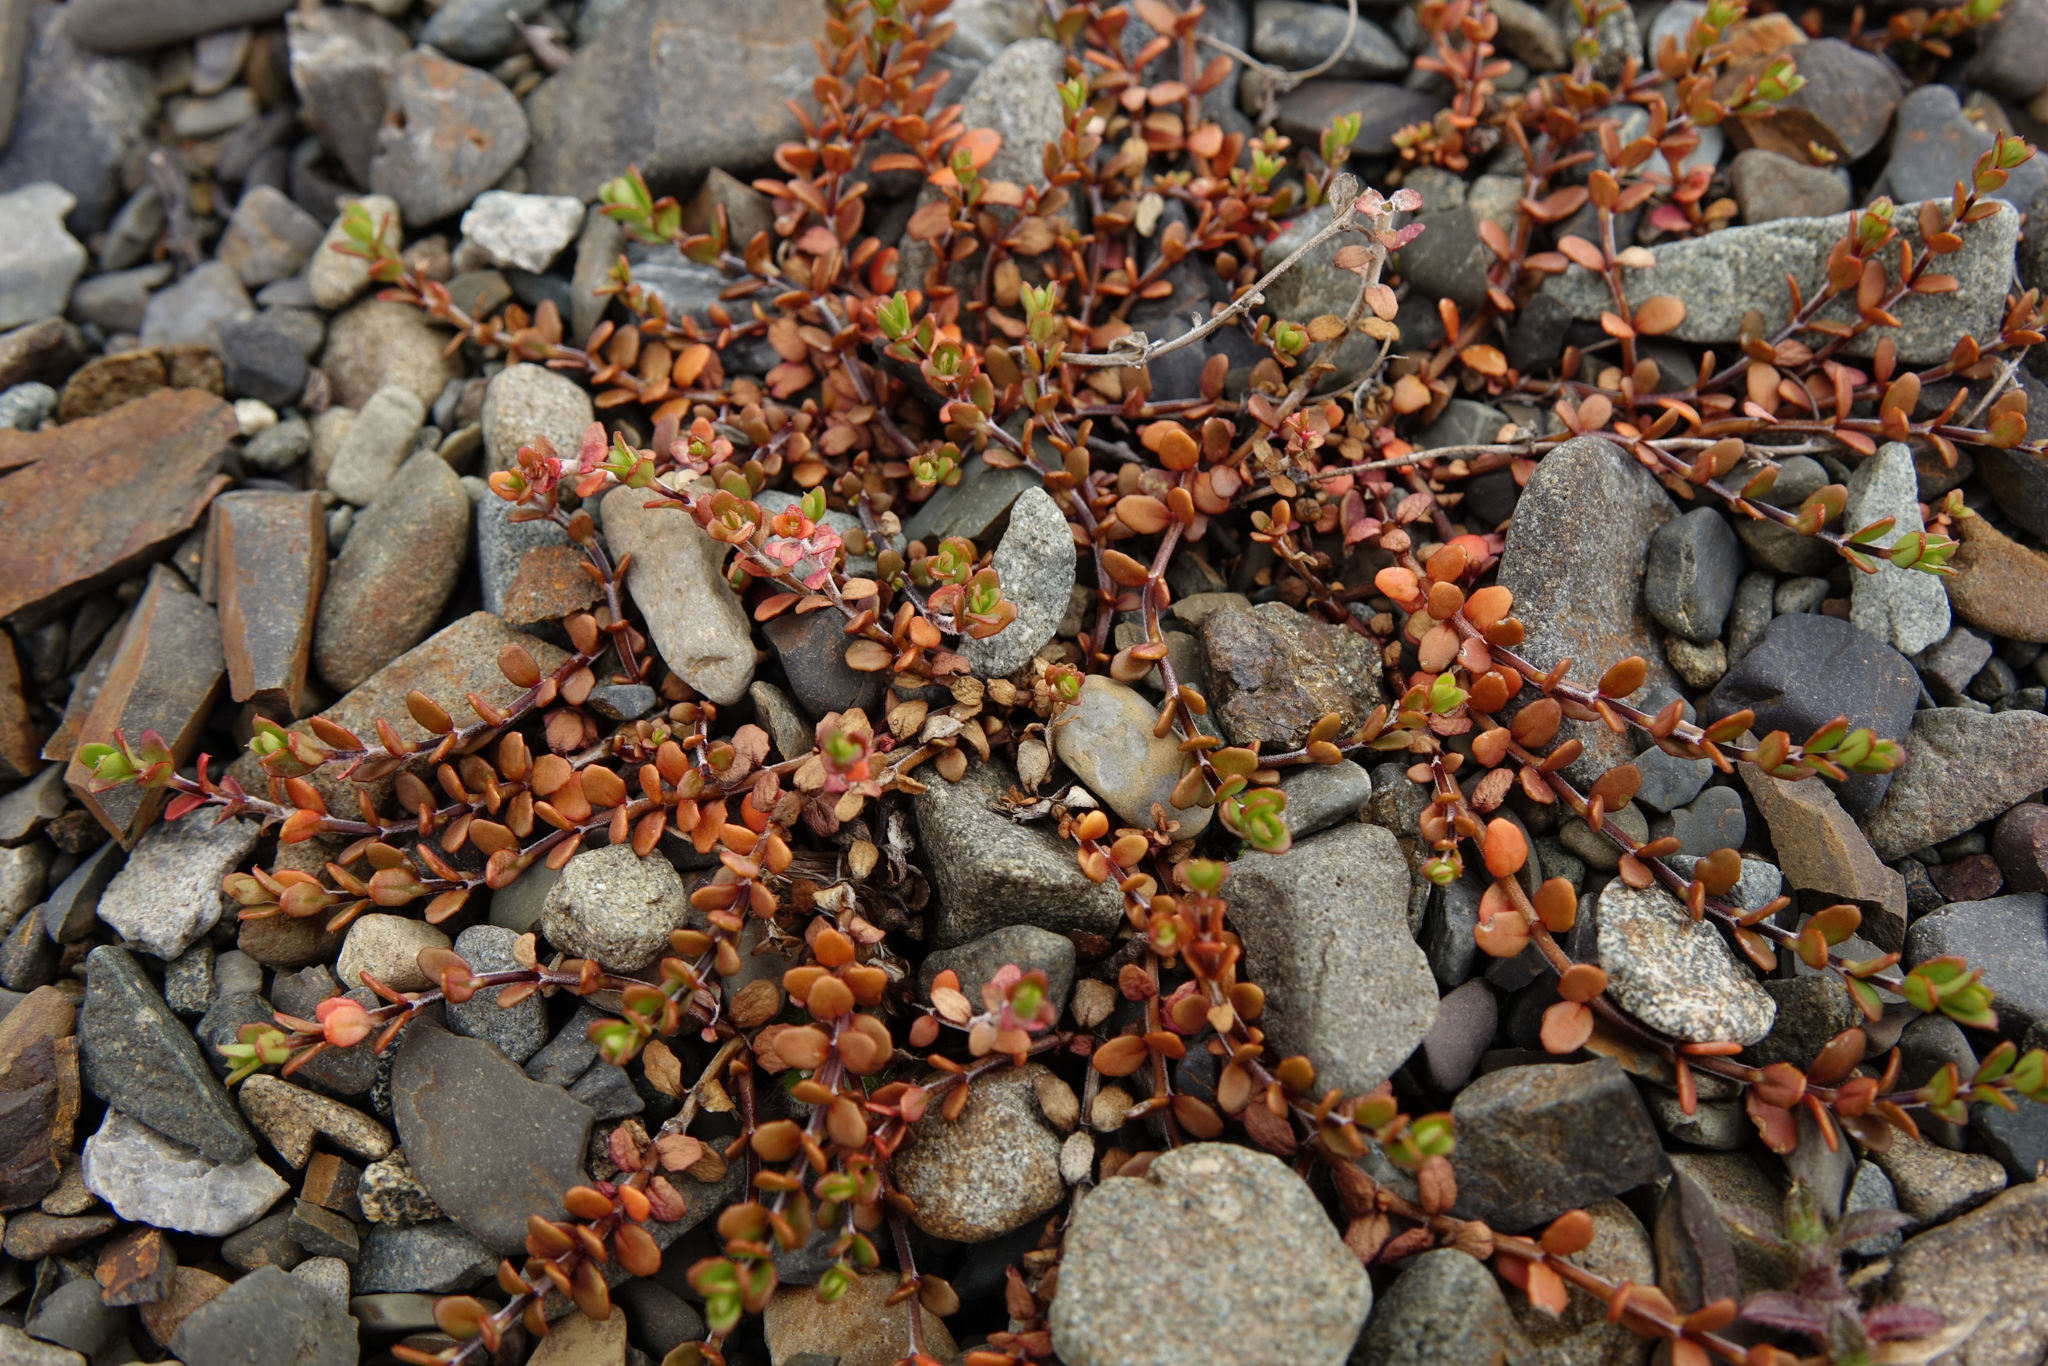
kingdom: Plantae
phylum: Tracheophyta
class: Magnoliopsida
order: Myrtales
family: Onagraceae
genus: Epilobium
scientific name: Epilobium microphyllum
